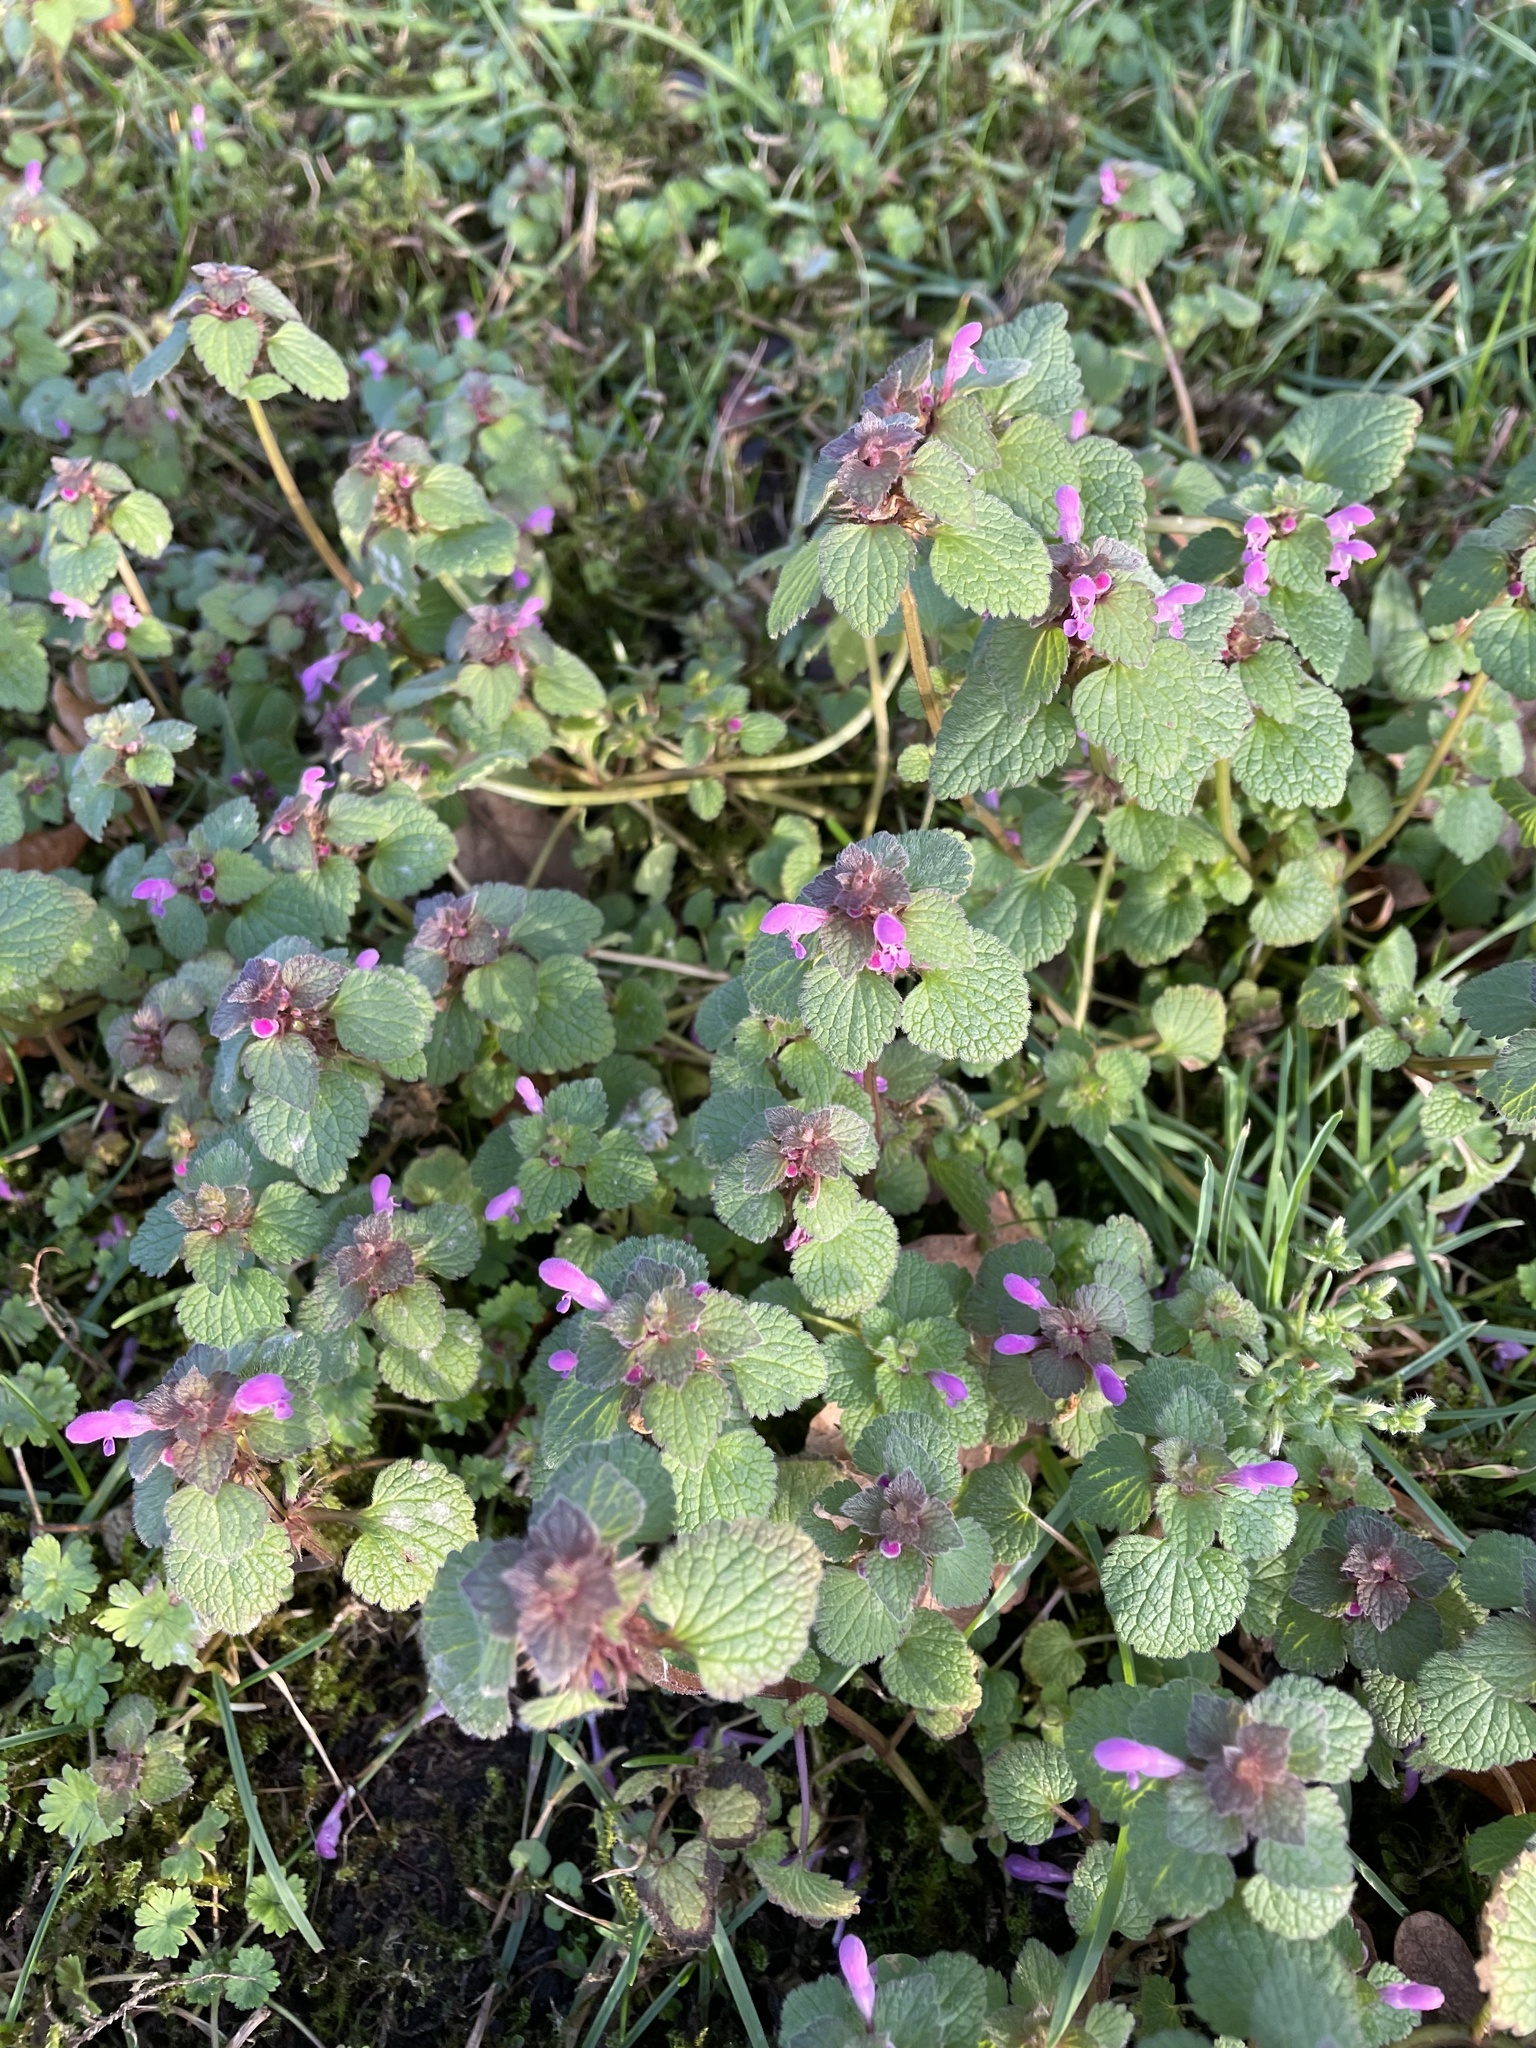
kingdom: Plantae
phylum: Tracheophyta
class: Magnoliopsida
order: Lamiales
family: Lamiaceae
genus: Lamium
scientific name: Lamium purpureum
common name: Red dead-nettle
